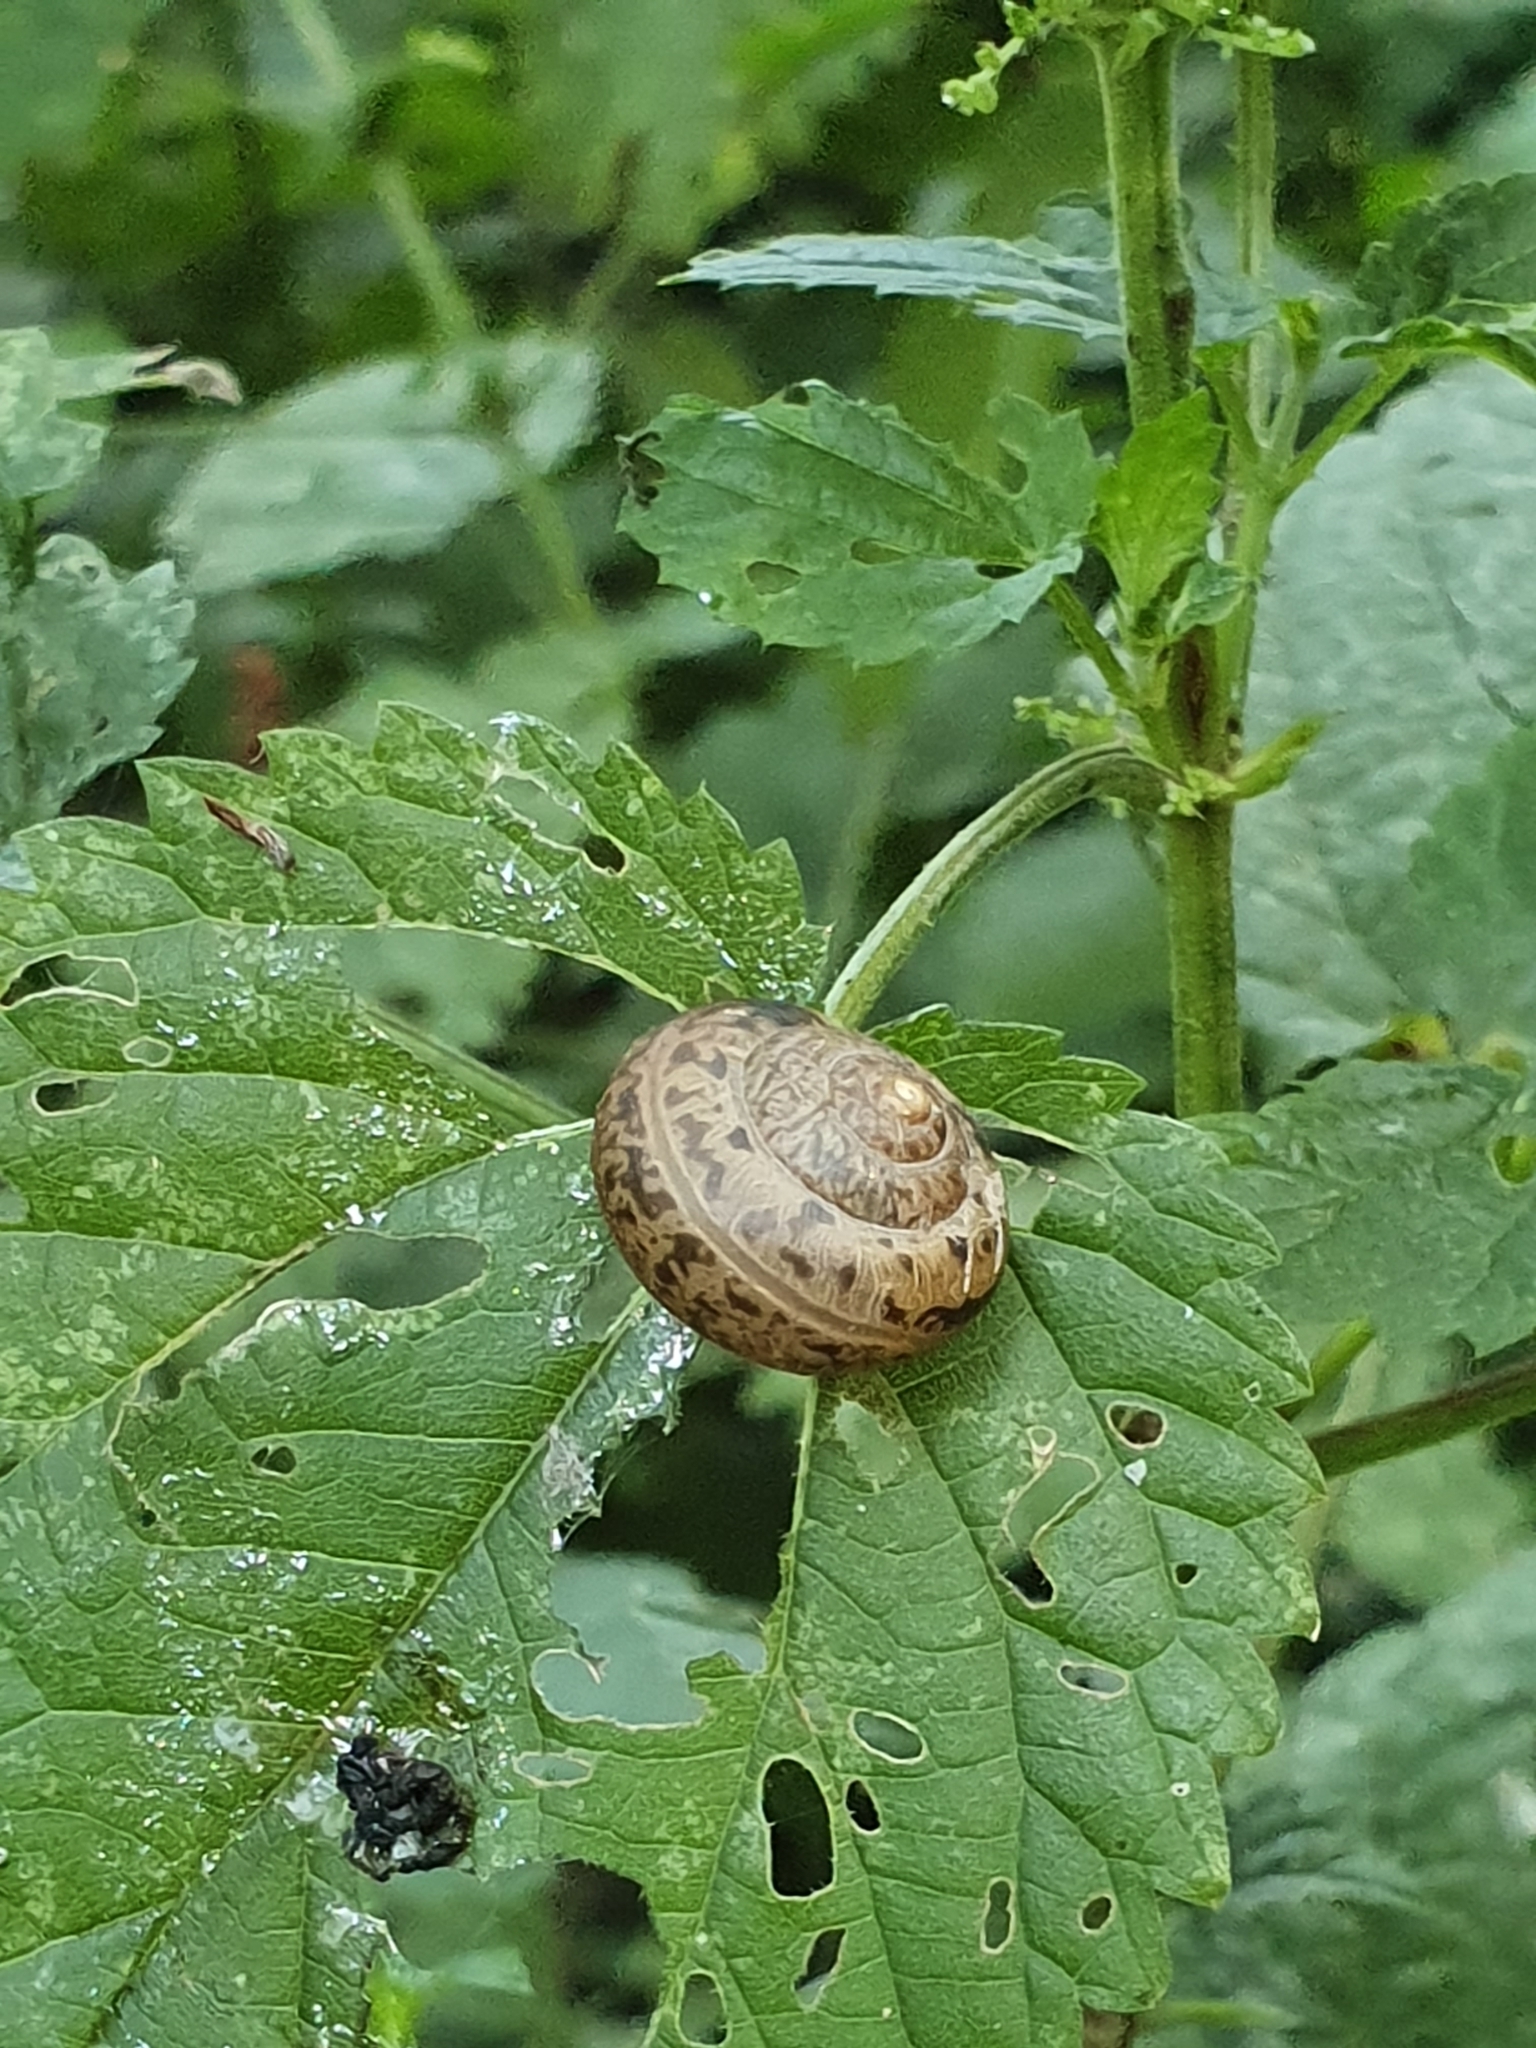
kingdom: Animalia
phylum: Mollusca
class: Gastropoda
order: Stylommatophora
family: Camaenidae
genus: Fruticicola
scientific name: Fruticicola fruticum
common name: Bush snail
